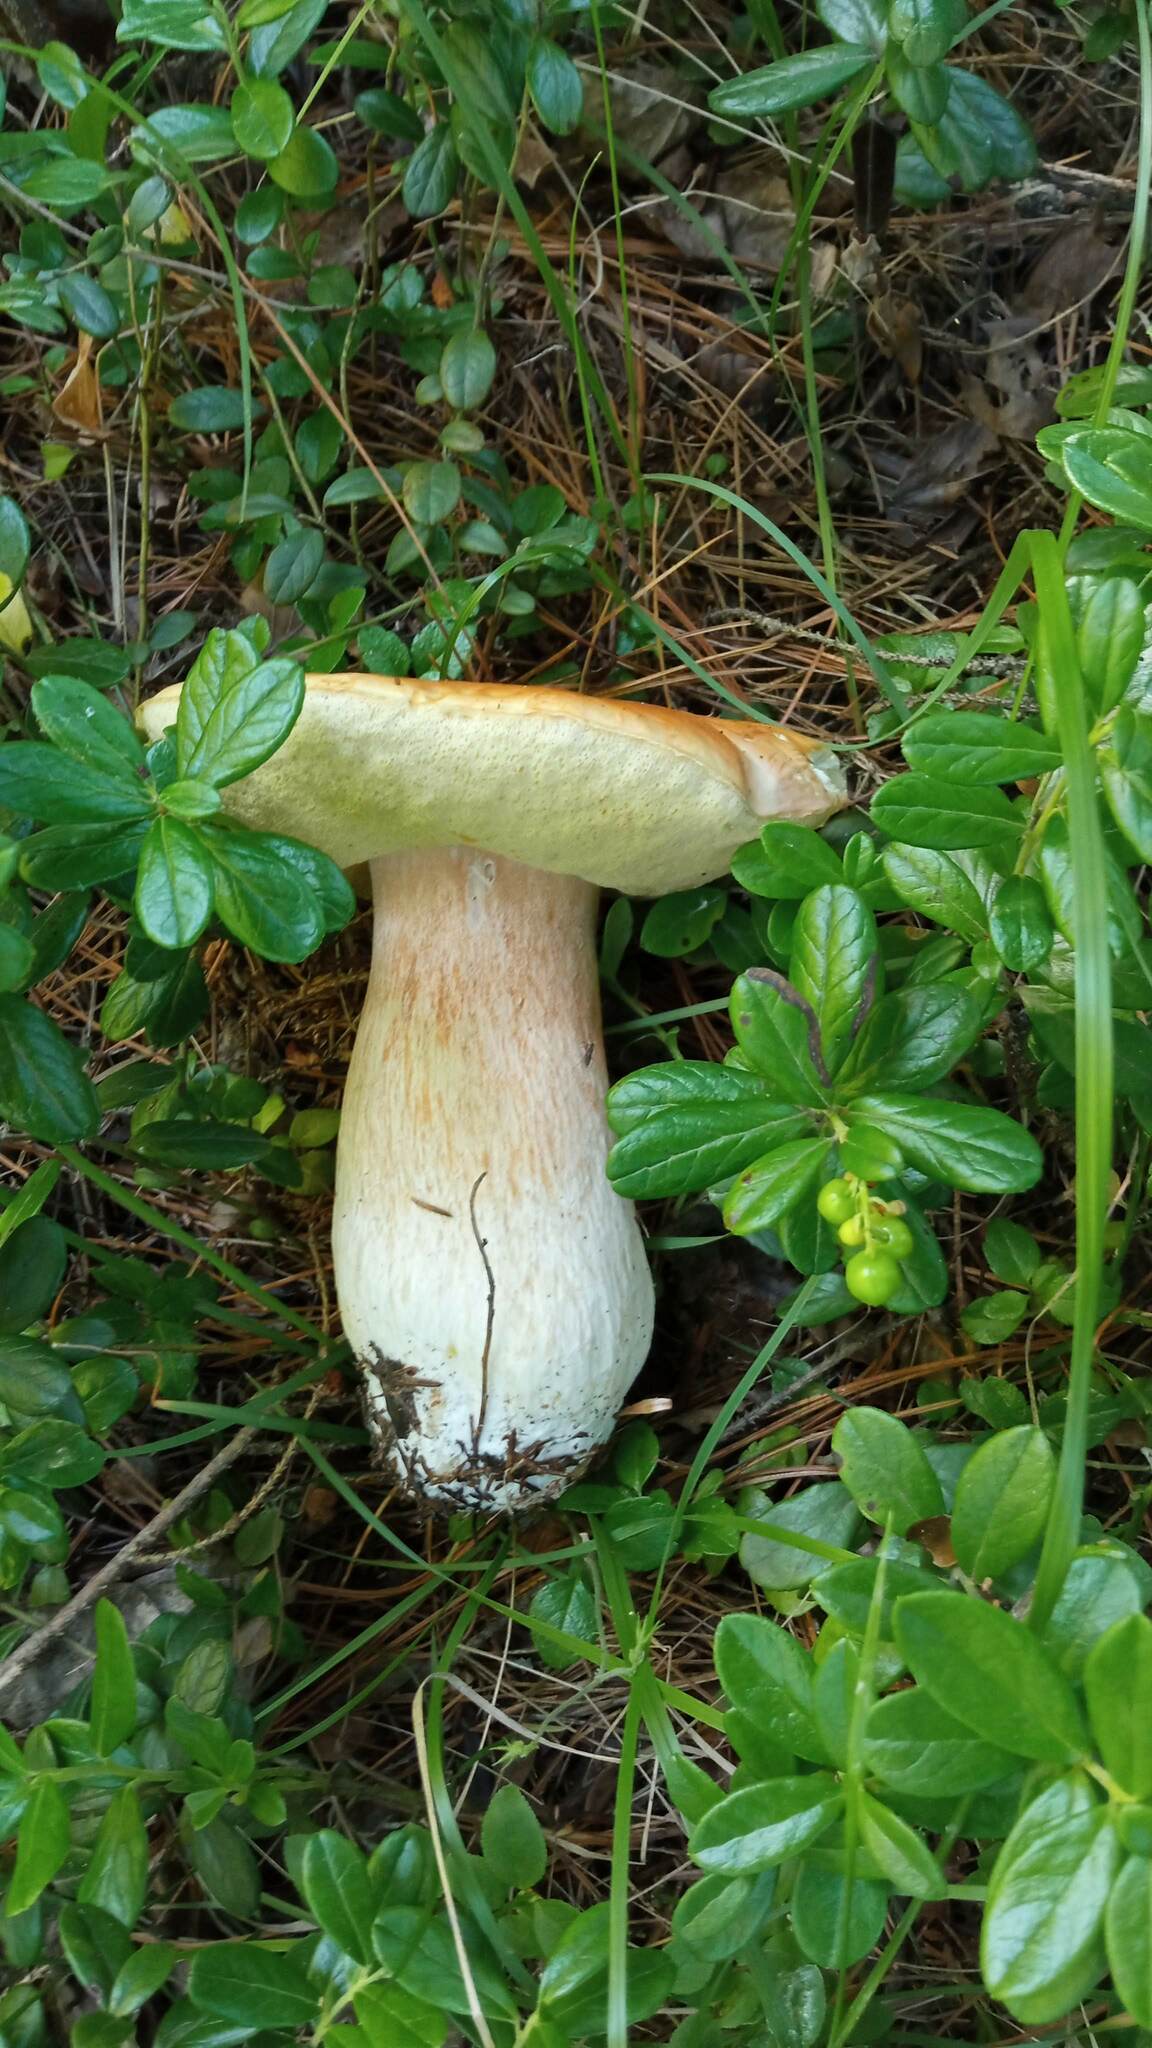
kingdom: Fungi
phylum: Basidiomycota
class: Agaricomycetes
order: Boletales
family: Boletaceae
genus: Boletus
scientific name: Boletus reticulatus
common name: Summer bolete
